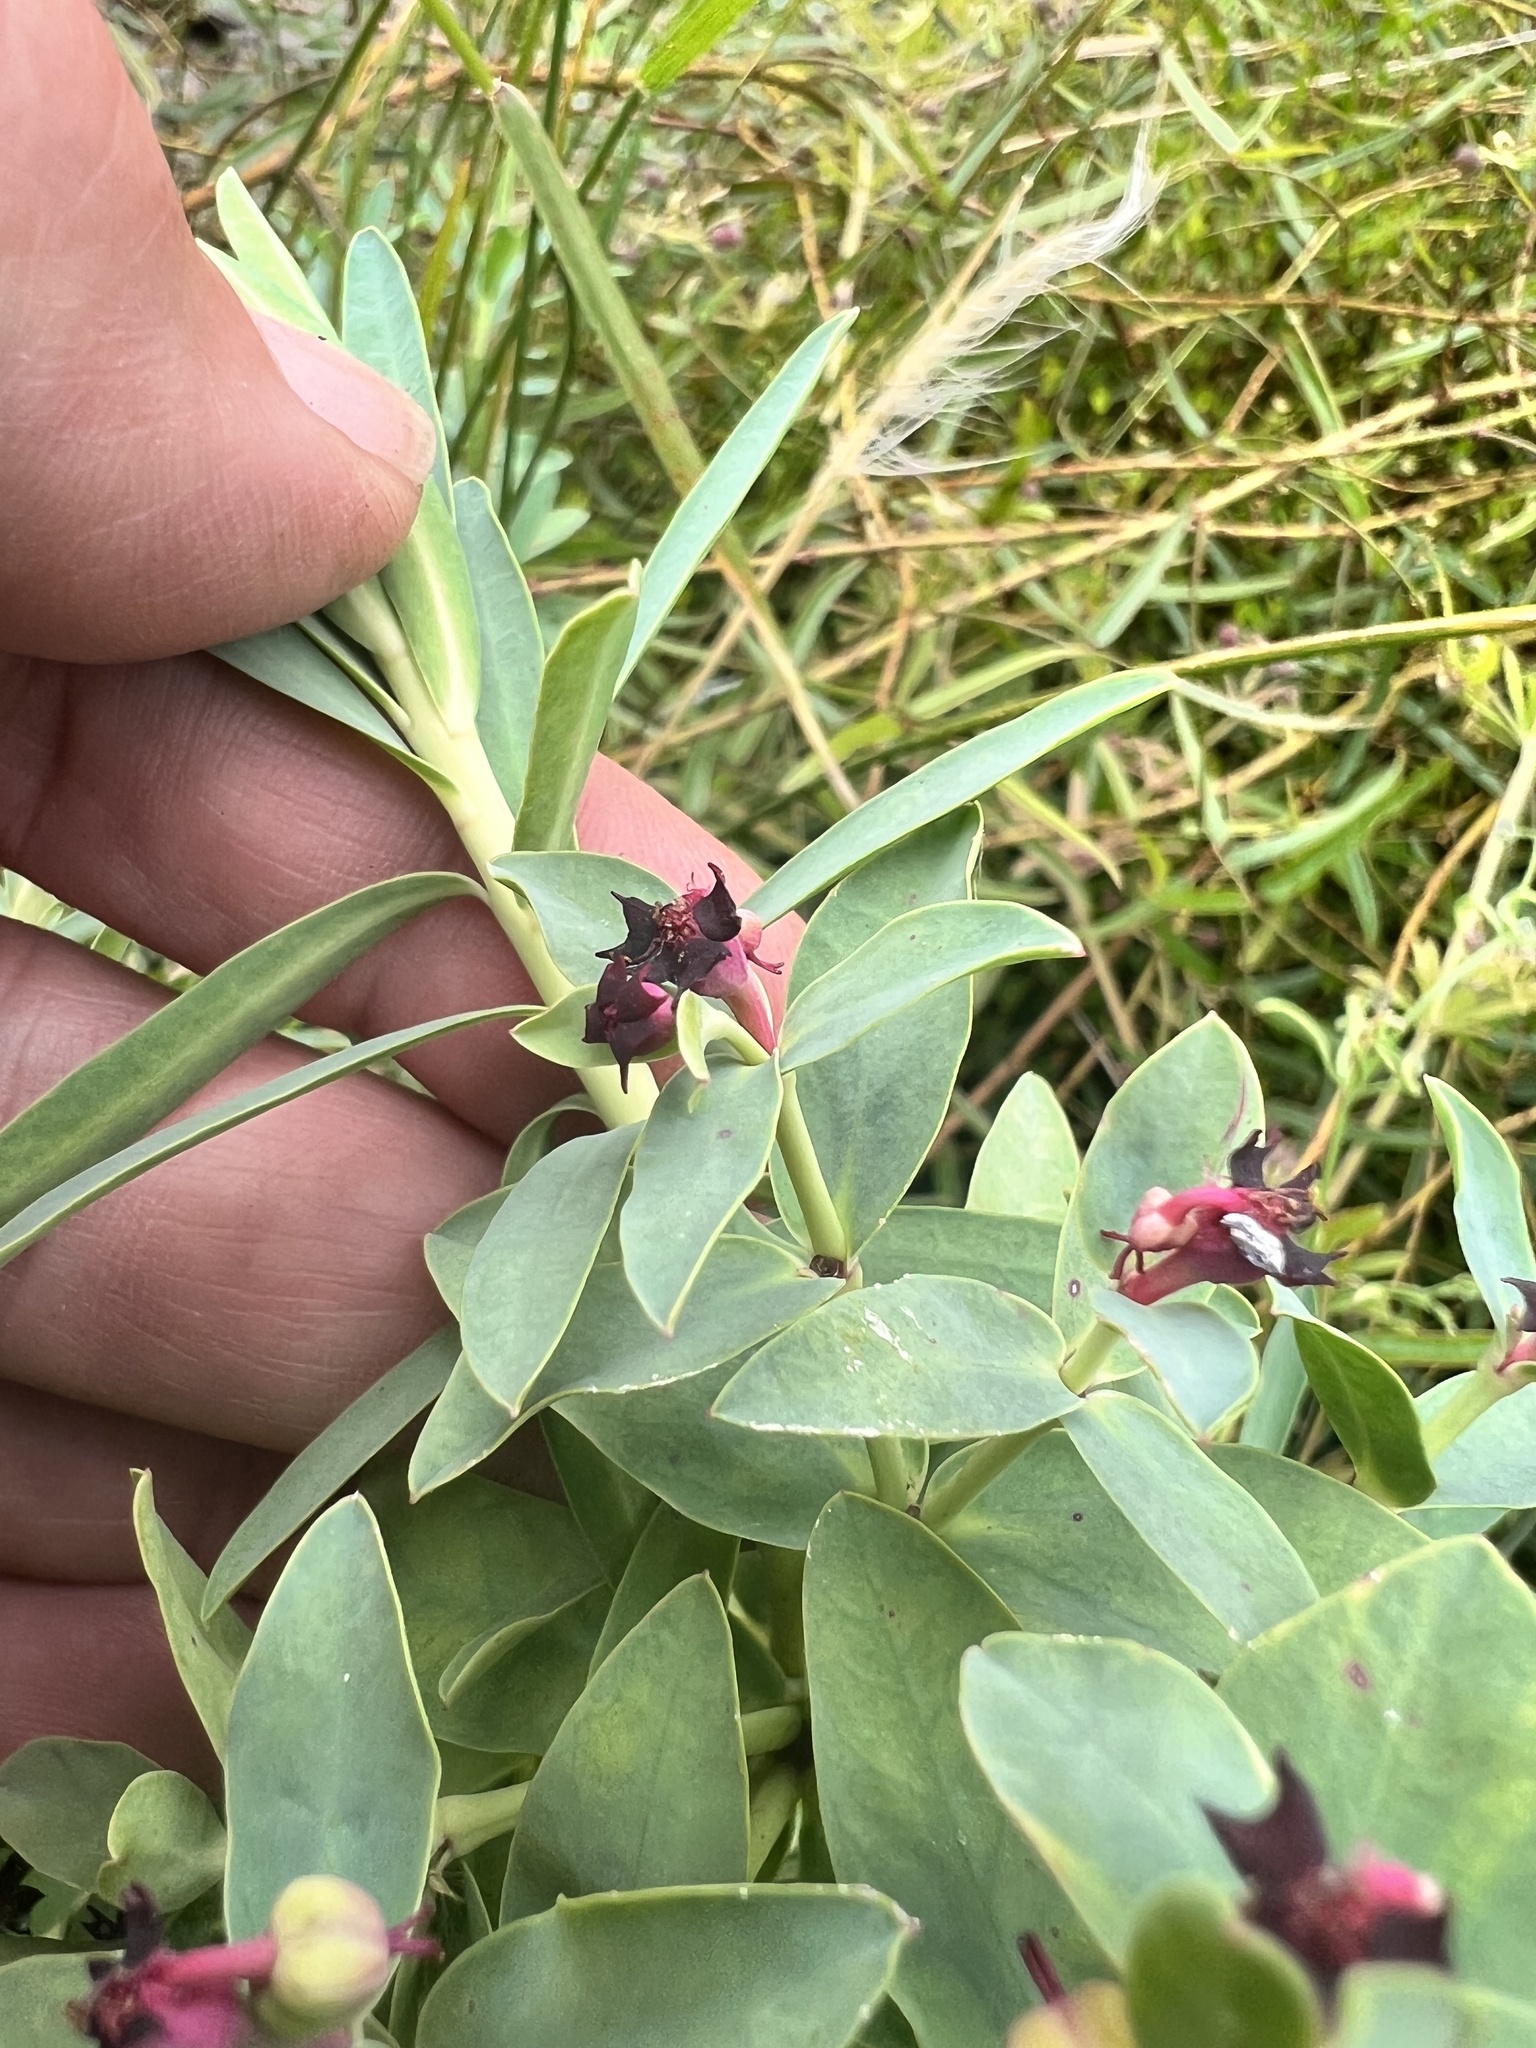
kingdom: Plantae
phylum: Tracheophyta
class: Magnoliopsida
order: Malpighiales
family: Euphorbiaceae
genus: Euphorbia
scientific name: Euphorbia glauca
